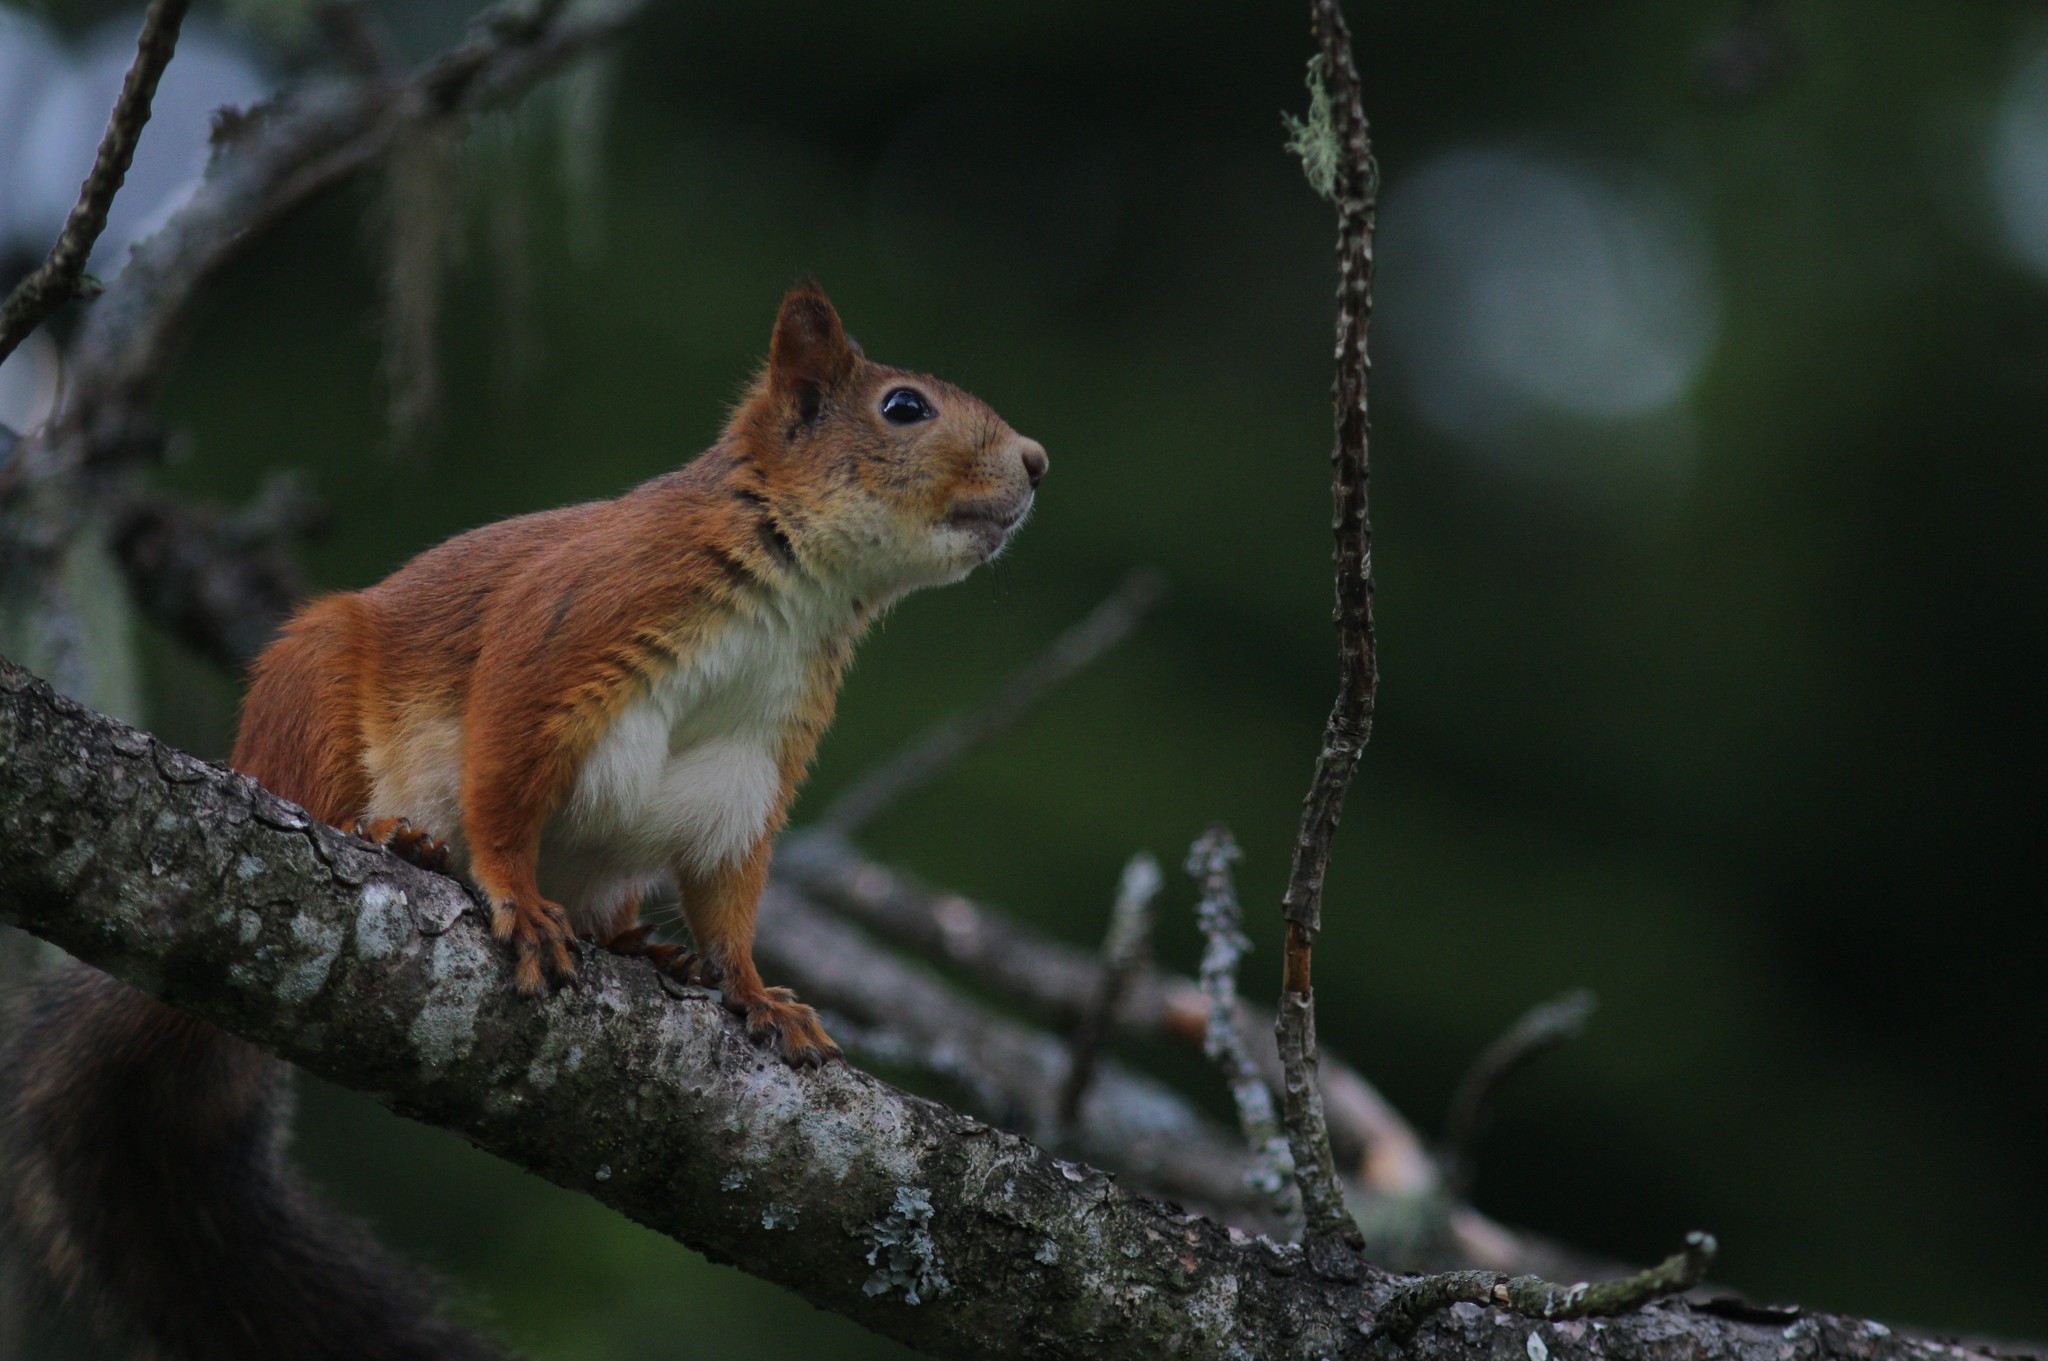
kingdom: Animalia
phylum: Chordata
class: Mammalia
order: Rodentia
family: Sciuridae
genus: Sciurus
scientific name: Sciurus vulgaris
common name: Eurasian red squirrel
